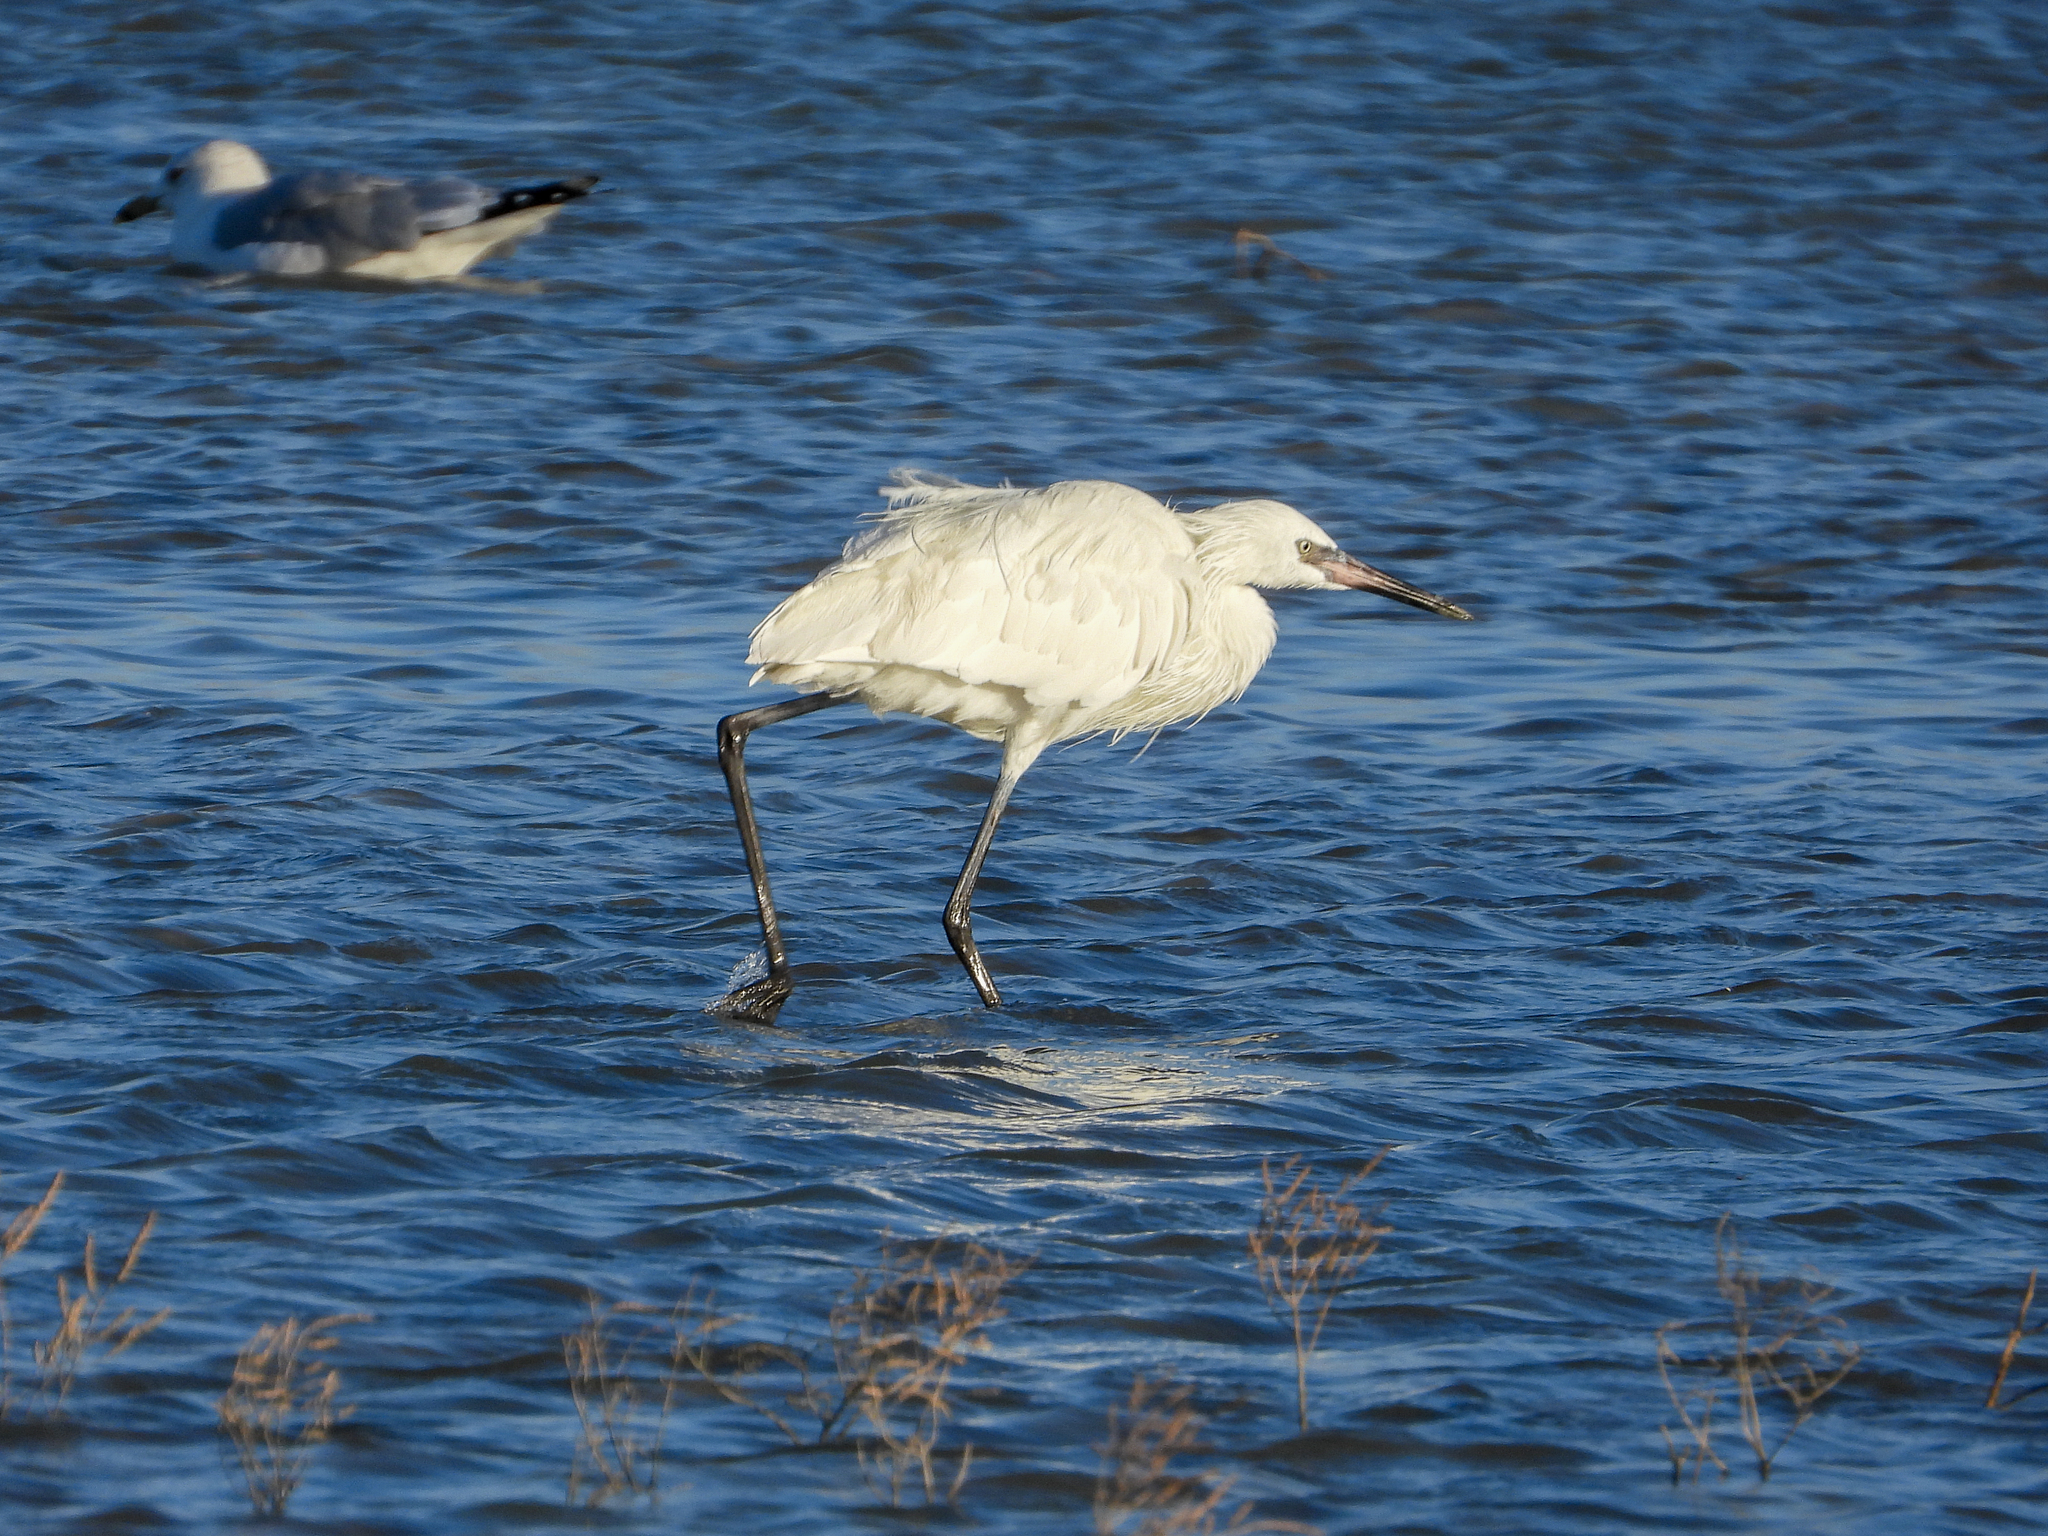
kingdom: Animalia
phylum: Chordata
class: Aves
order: Pelecaniformes
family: Ardeidae
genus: Egretta
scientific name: Egretta rufescens
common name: Reddish egret
